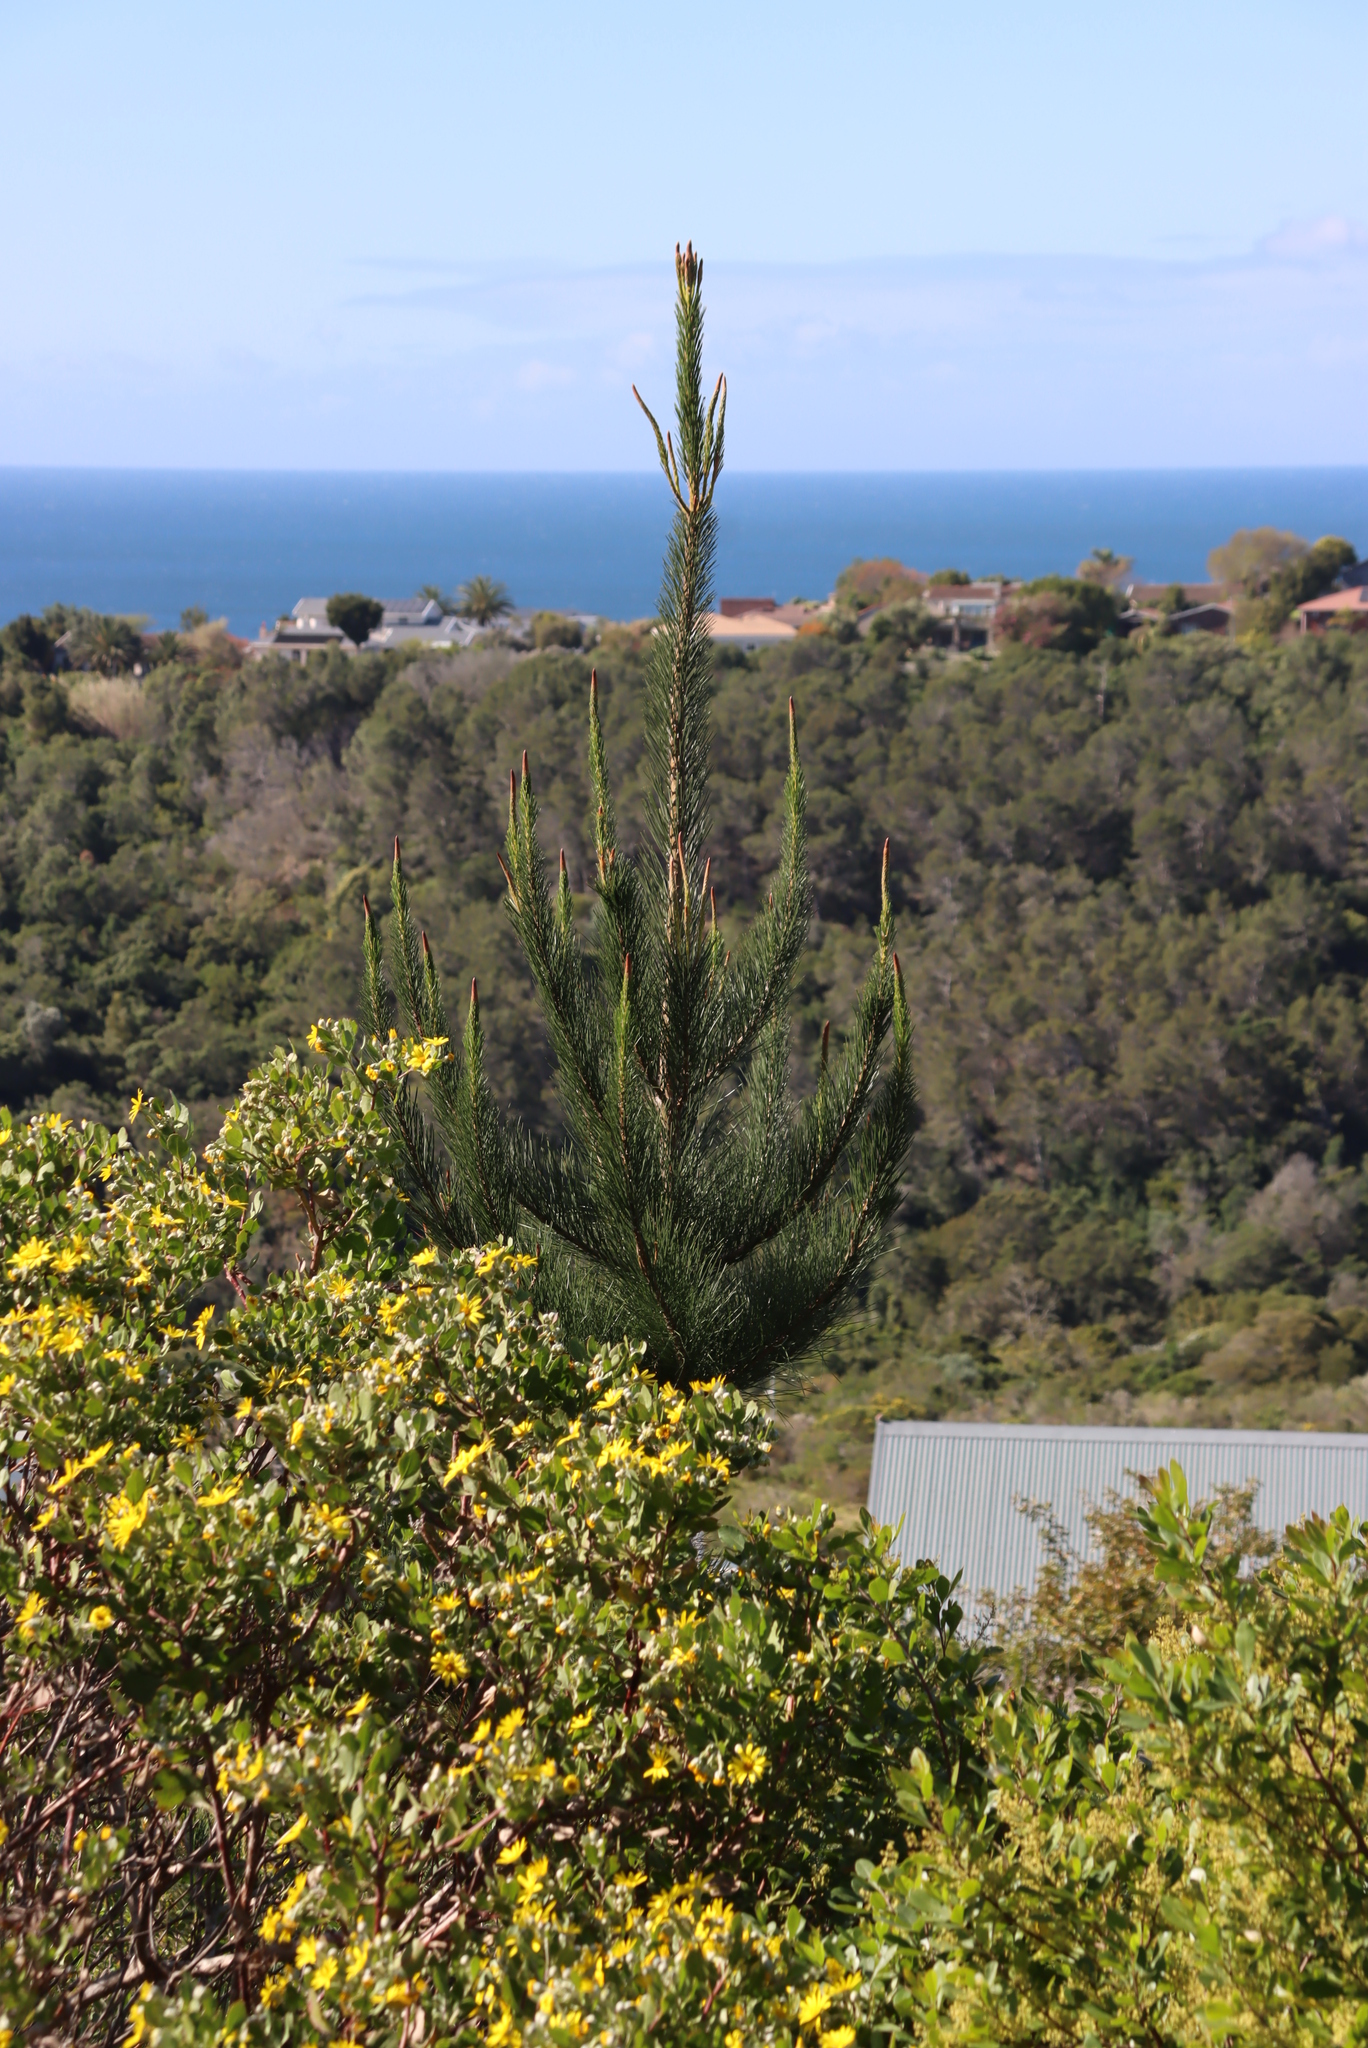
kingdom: Plantae
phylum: Tracheophyta
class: Pinopsida
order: Pinales
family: Pinaceae
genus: Pinus
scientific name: Pinus radiata
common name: Monterey pine
